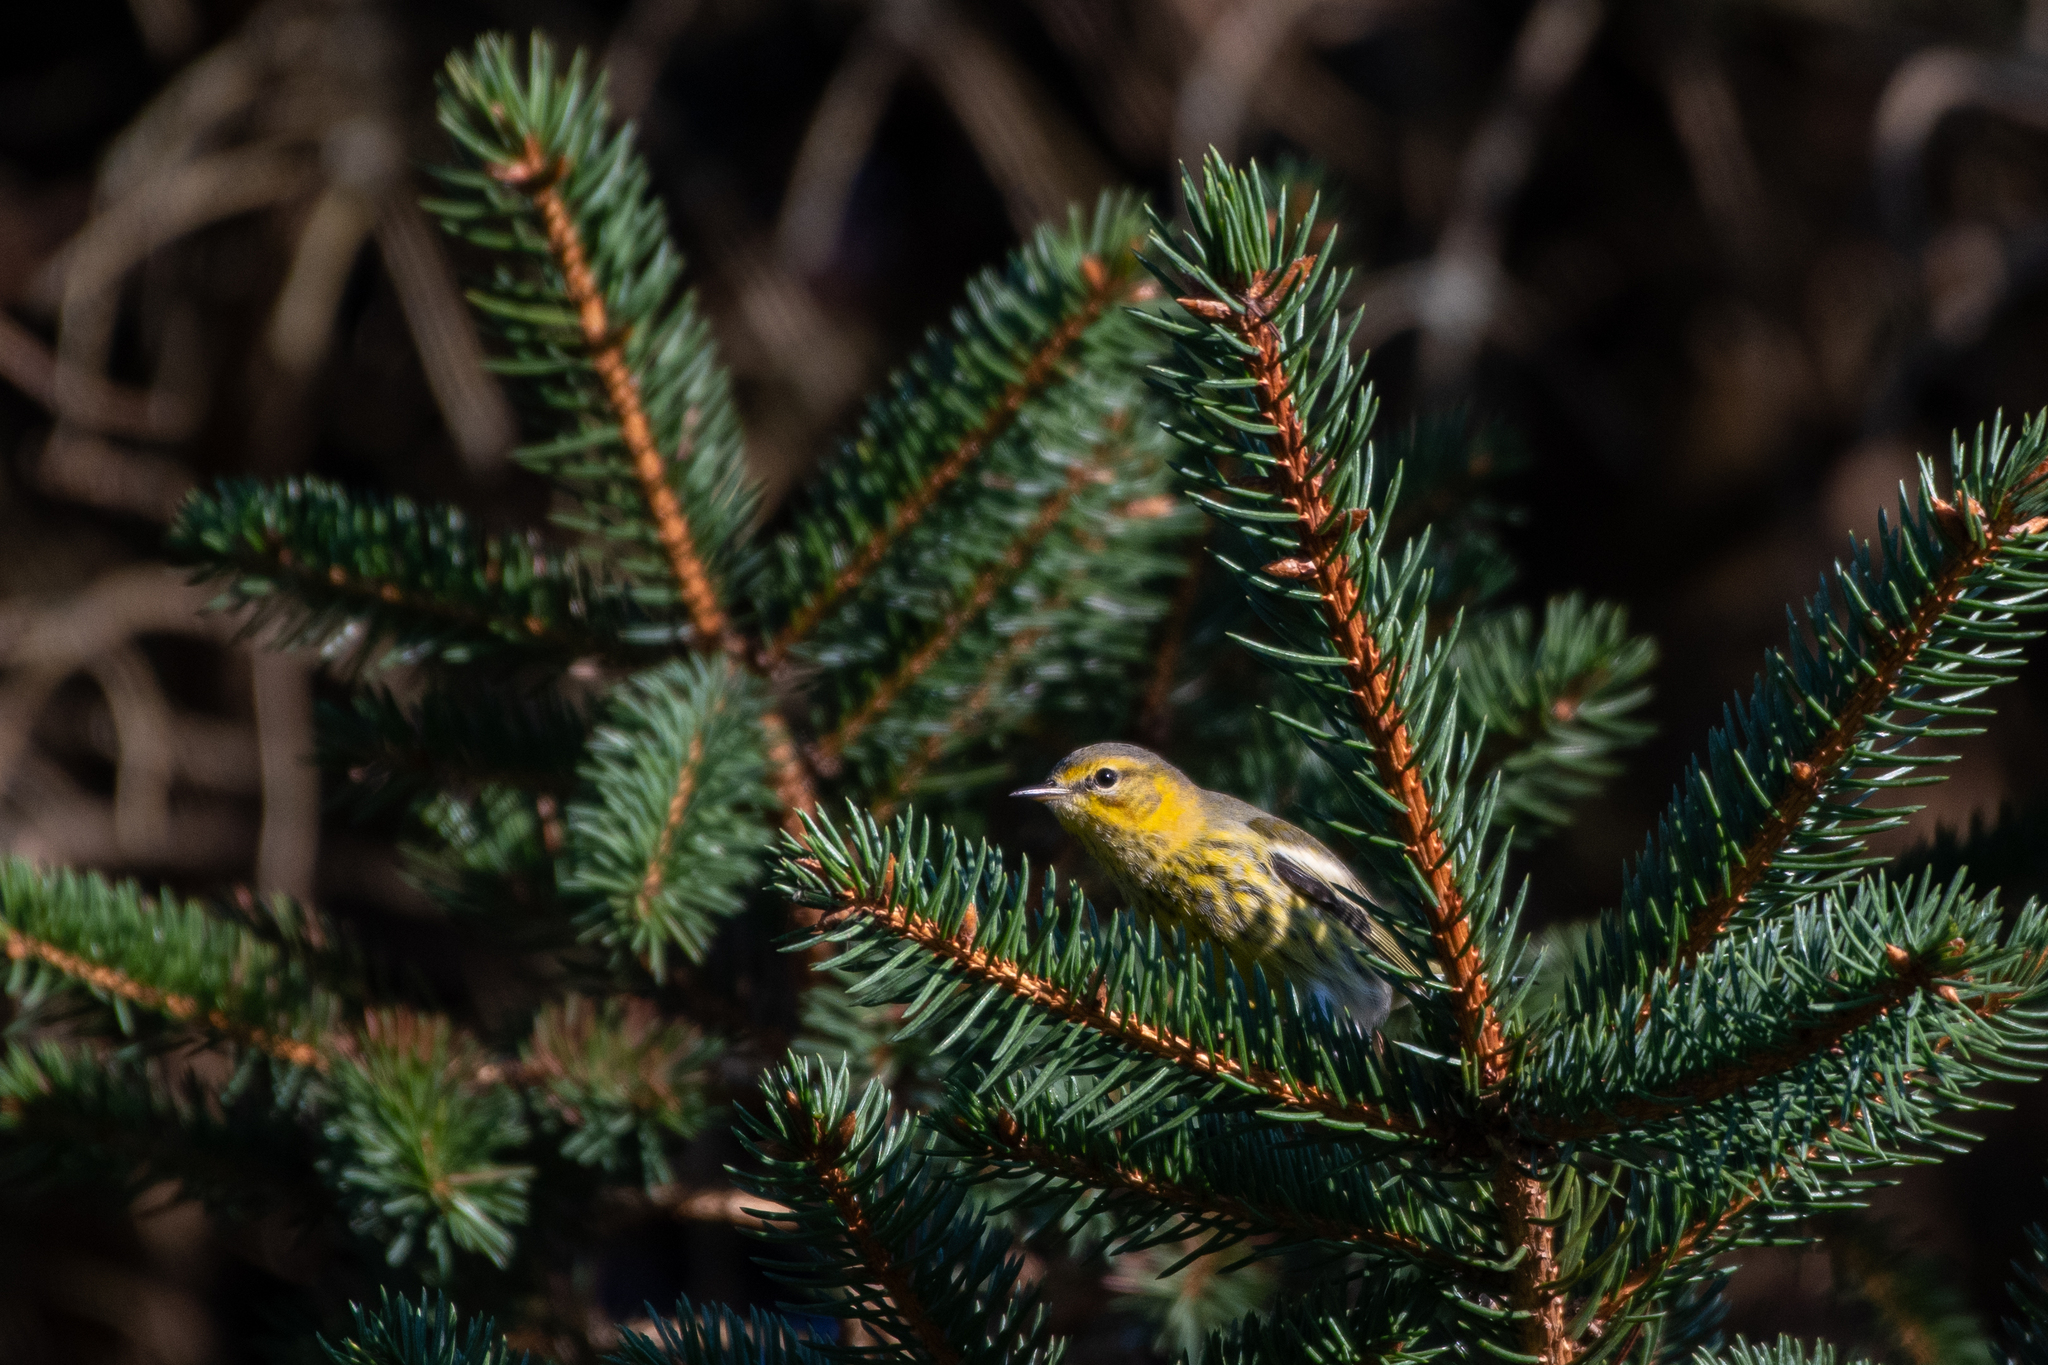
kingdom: Animalia
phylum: Chordata
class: Aves
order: Passeriformes
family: Parulidae
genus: Setophaga
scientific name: Setophaga tigrina
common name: Cape may warbler
